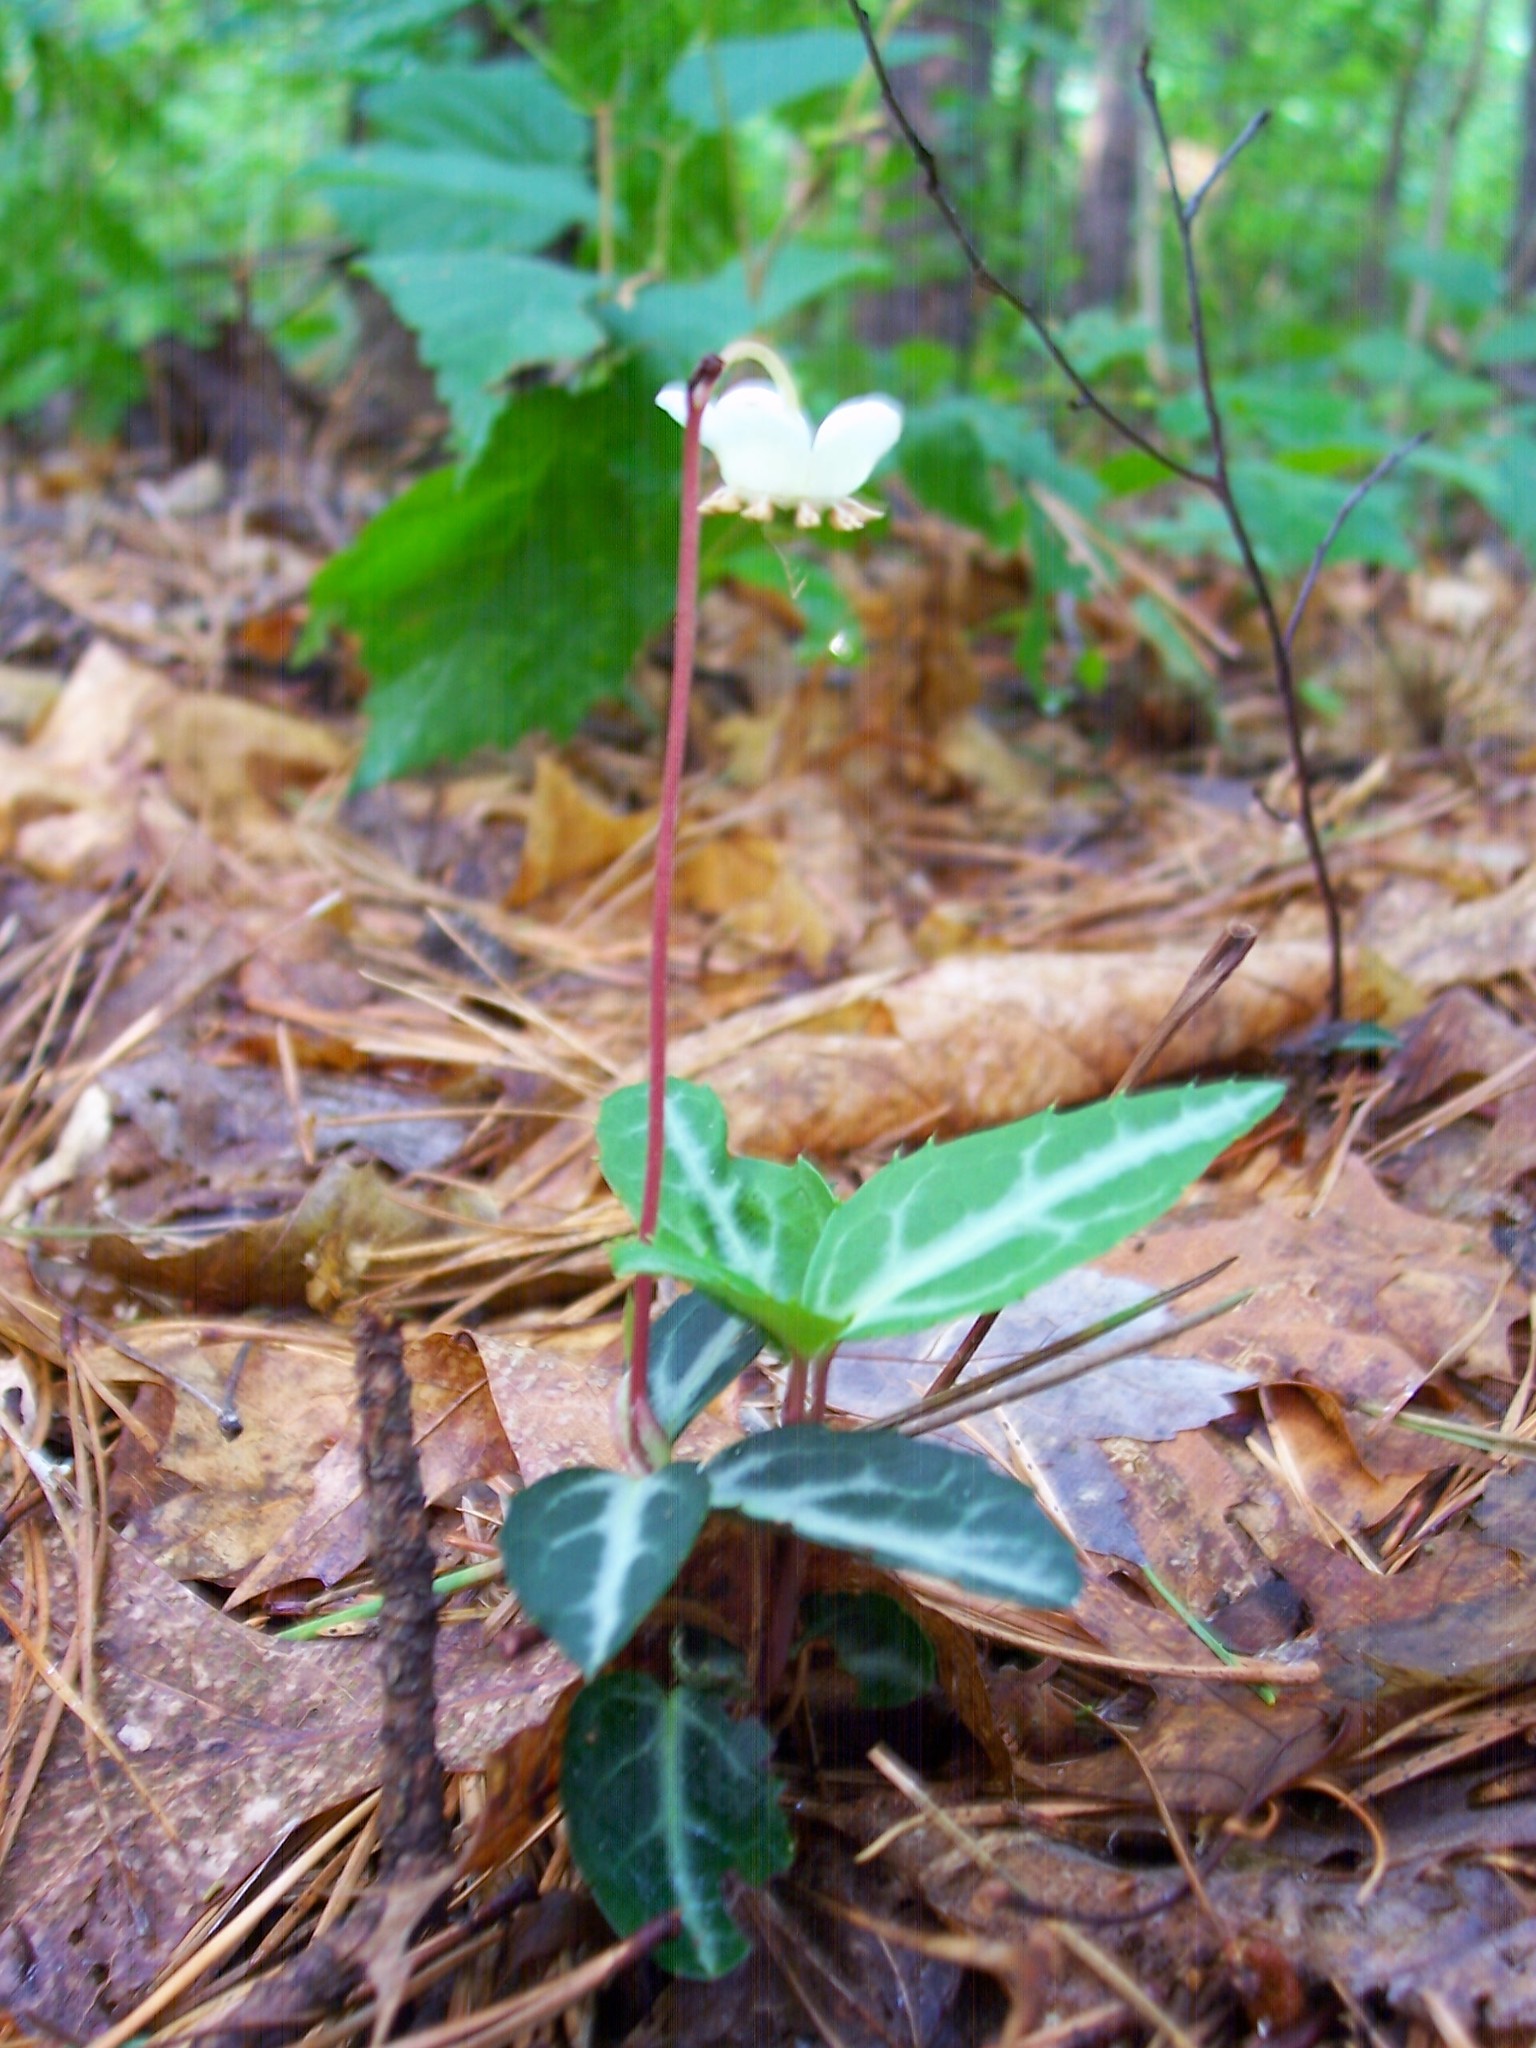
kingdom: Plantae
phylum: Tracheophyta
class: Magnoliopsida
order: Ericales
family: Ericaceae
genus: Chimaphila
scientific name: Chimaphila maculata
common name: Spotted pipsissewa
